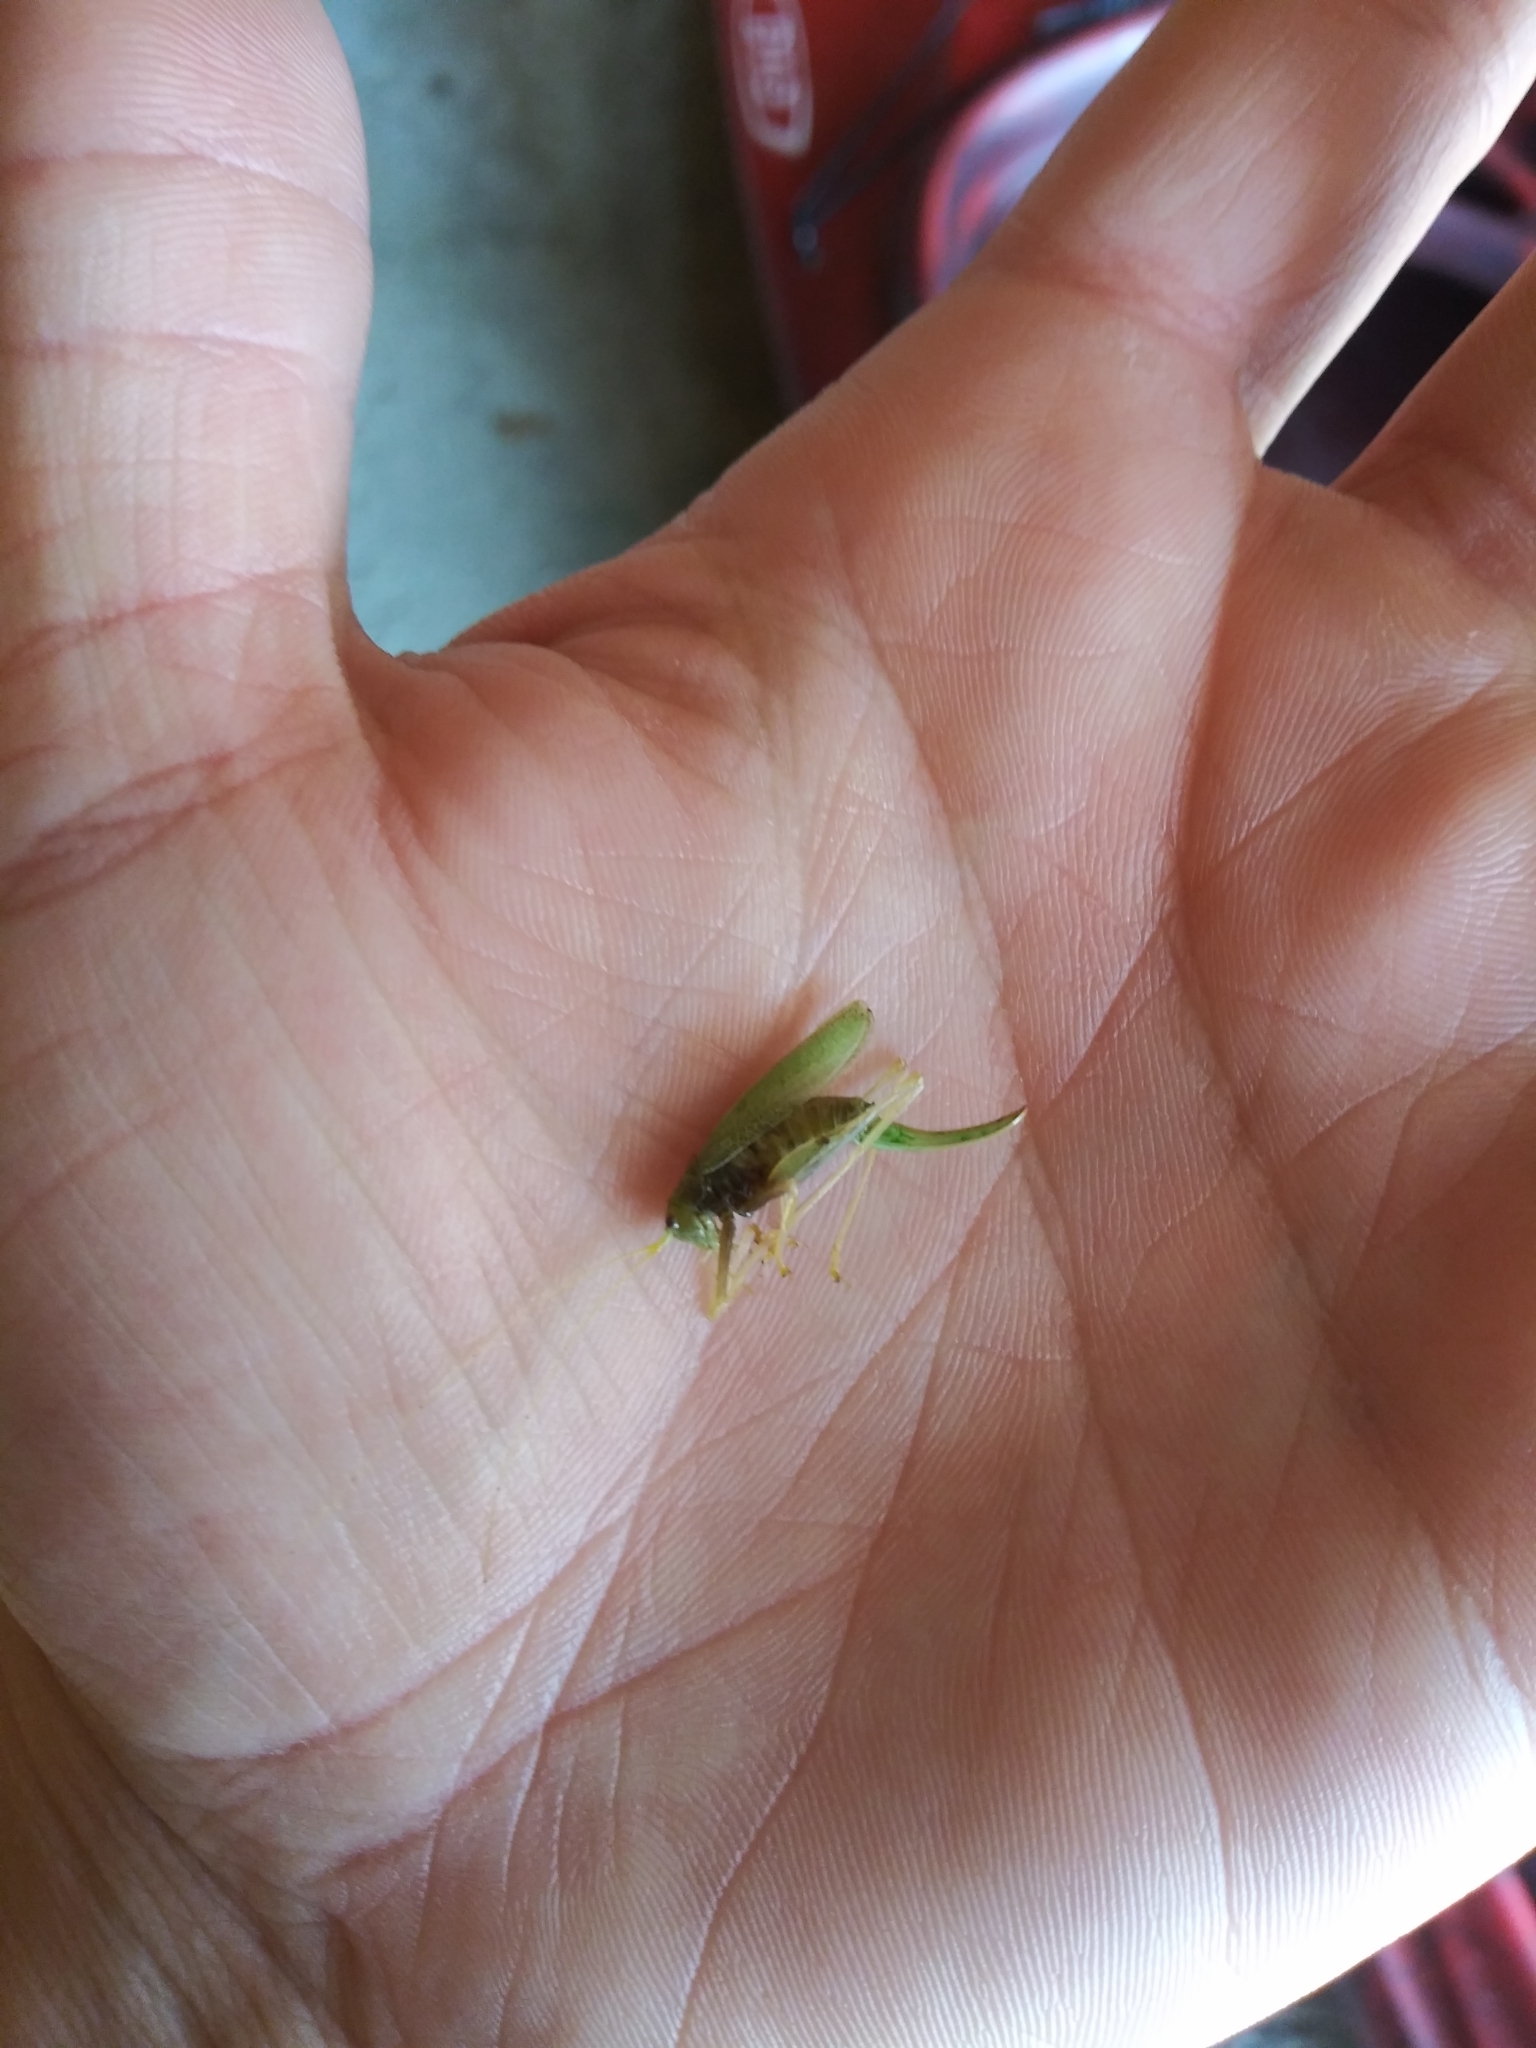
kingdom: Animalia
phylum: Arthropoda
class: Insecta
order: Orthoptera
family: Tettigoniidae
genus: Meconema
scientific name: Meconema thalassinum
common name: Oak bush-cricket
